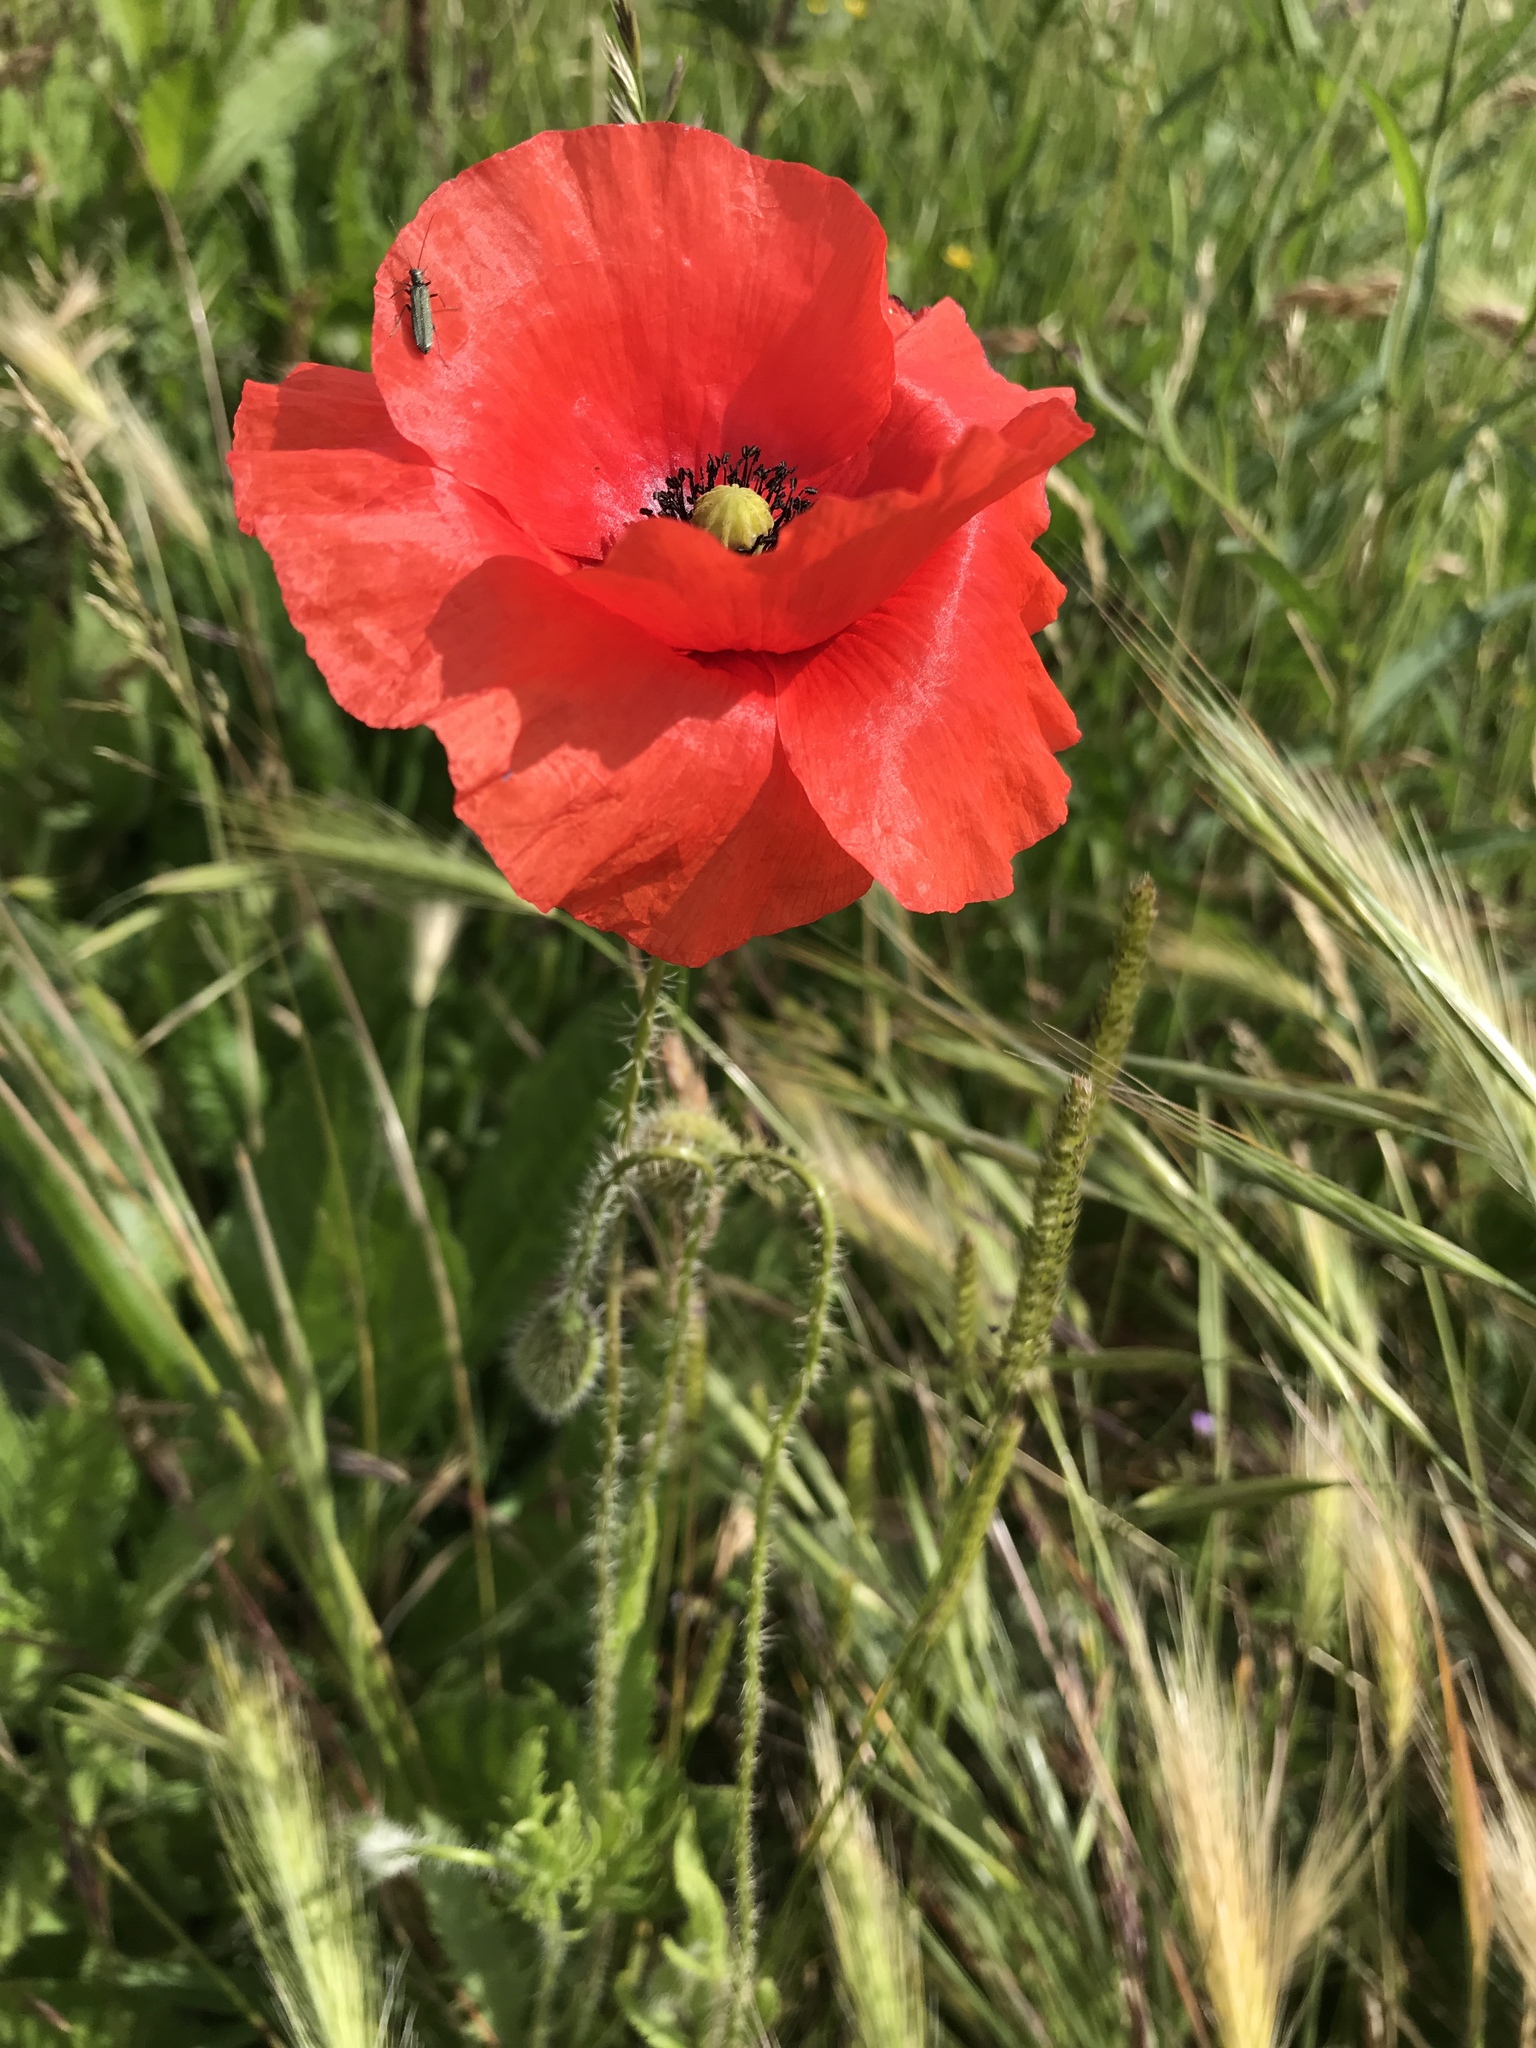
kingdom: Plantae
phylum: Tracheophyta
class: Magnoliopsida
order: Ranunculales
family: Papaveraceae
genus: Papaver
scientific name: Papaver rhoeas
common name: Corn poppy
